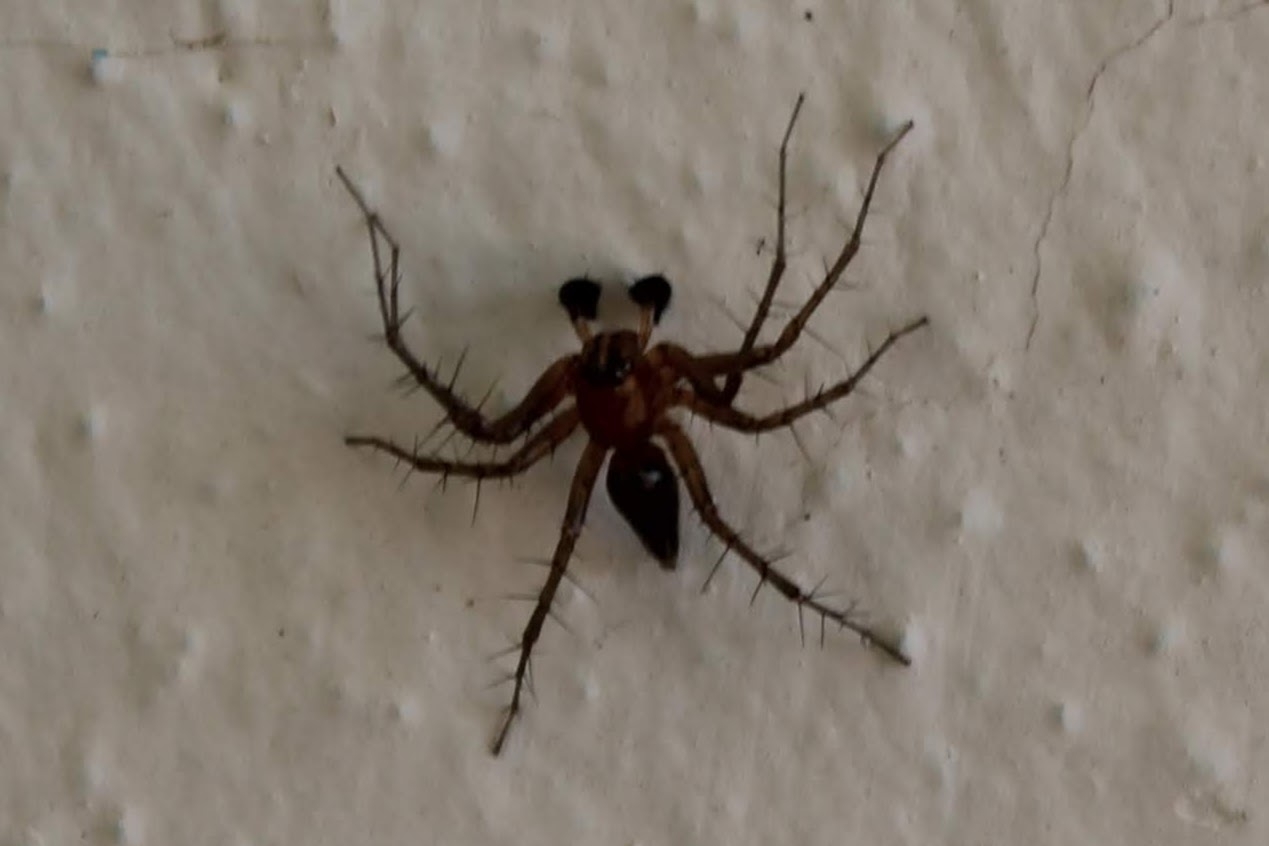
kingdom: Animalia
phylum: Arthropoda
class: Arachnida
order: Araneae
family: Oxyopidae
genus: Oxyopes
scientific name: Oxyopes salticus
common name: Lynx spiders
